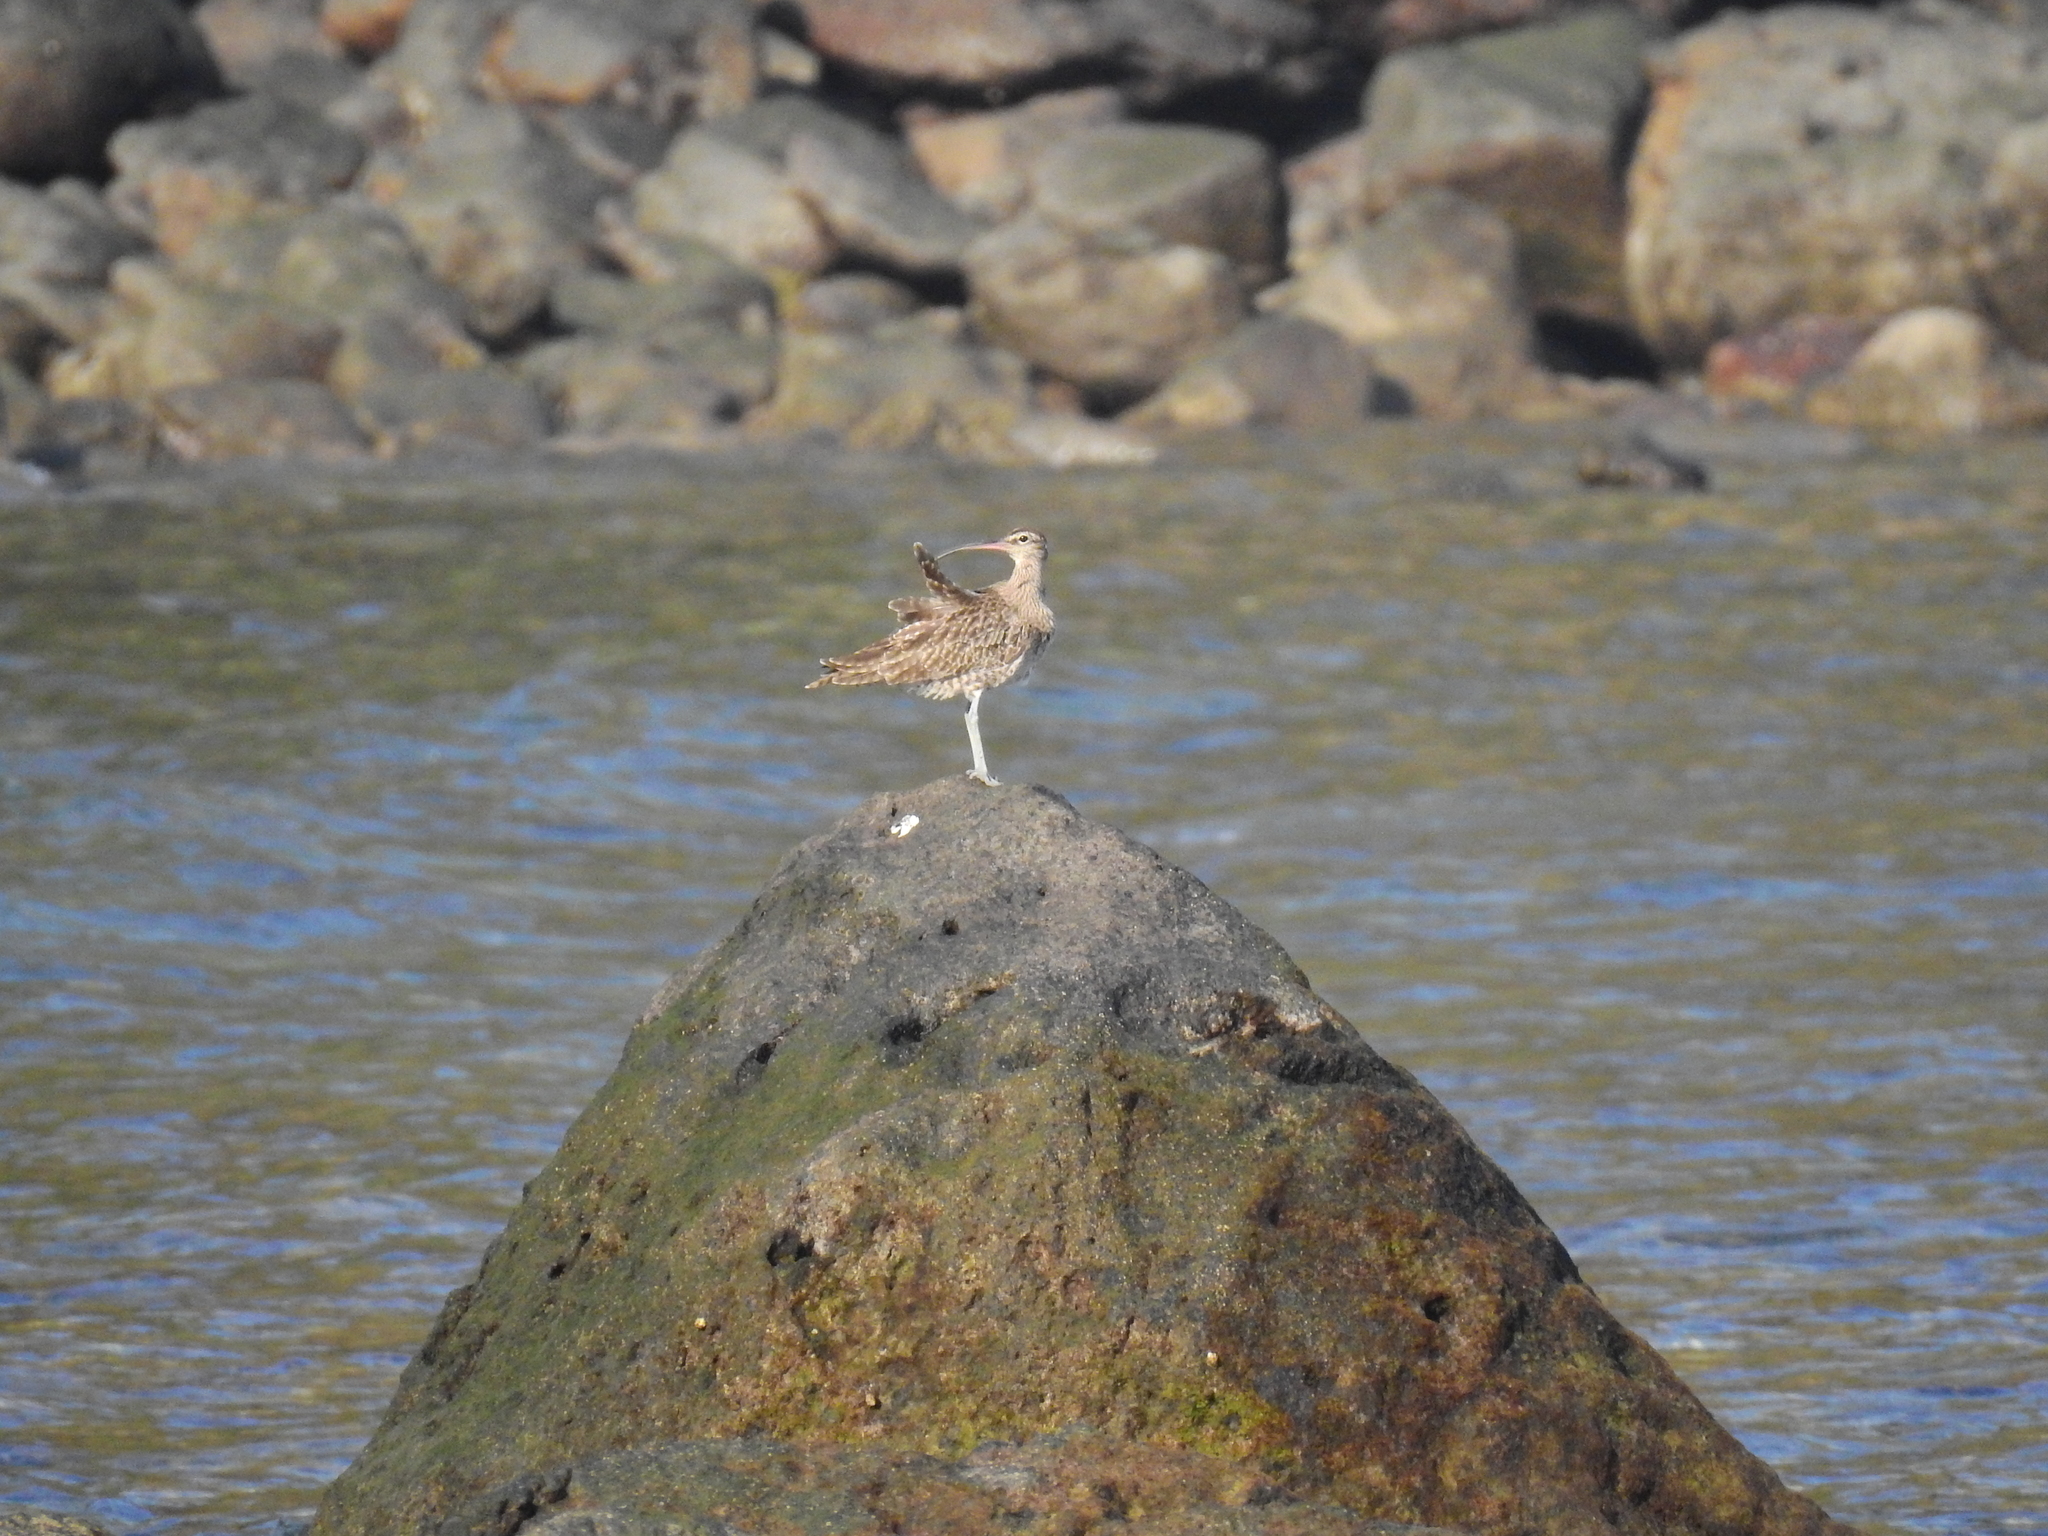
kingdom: Animalia
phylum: Chordata
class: Aves
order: Charadriiformes
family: Scolopacidae
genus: Numenius
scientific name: Numenius phaeopus
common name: Whimbrel
